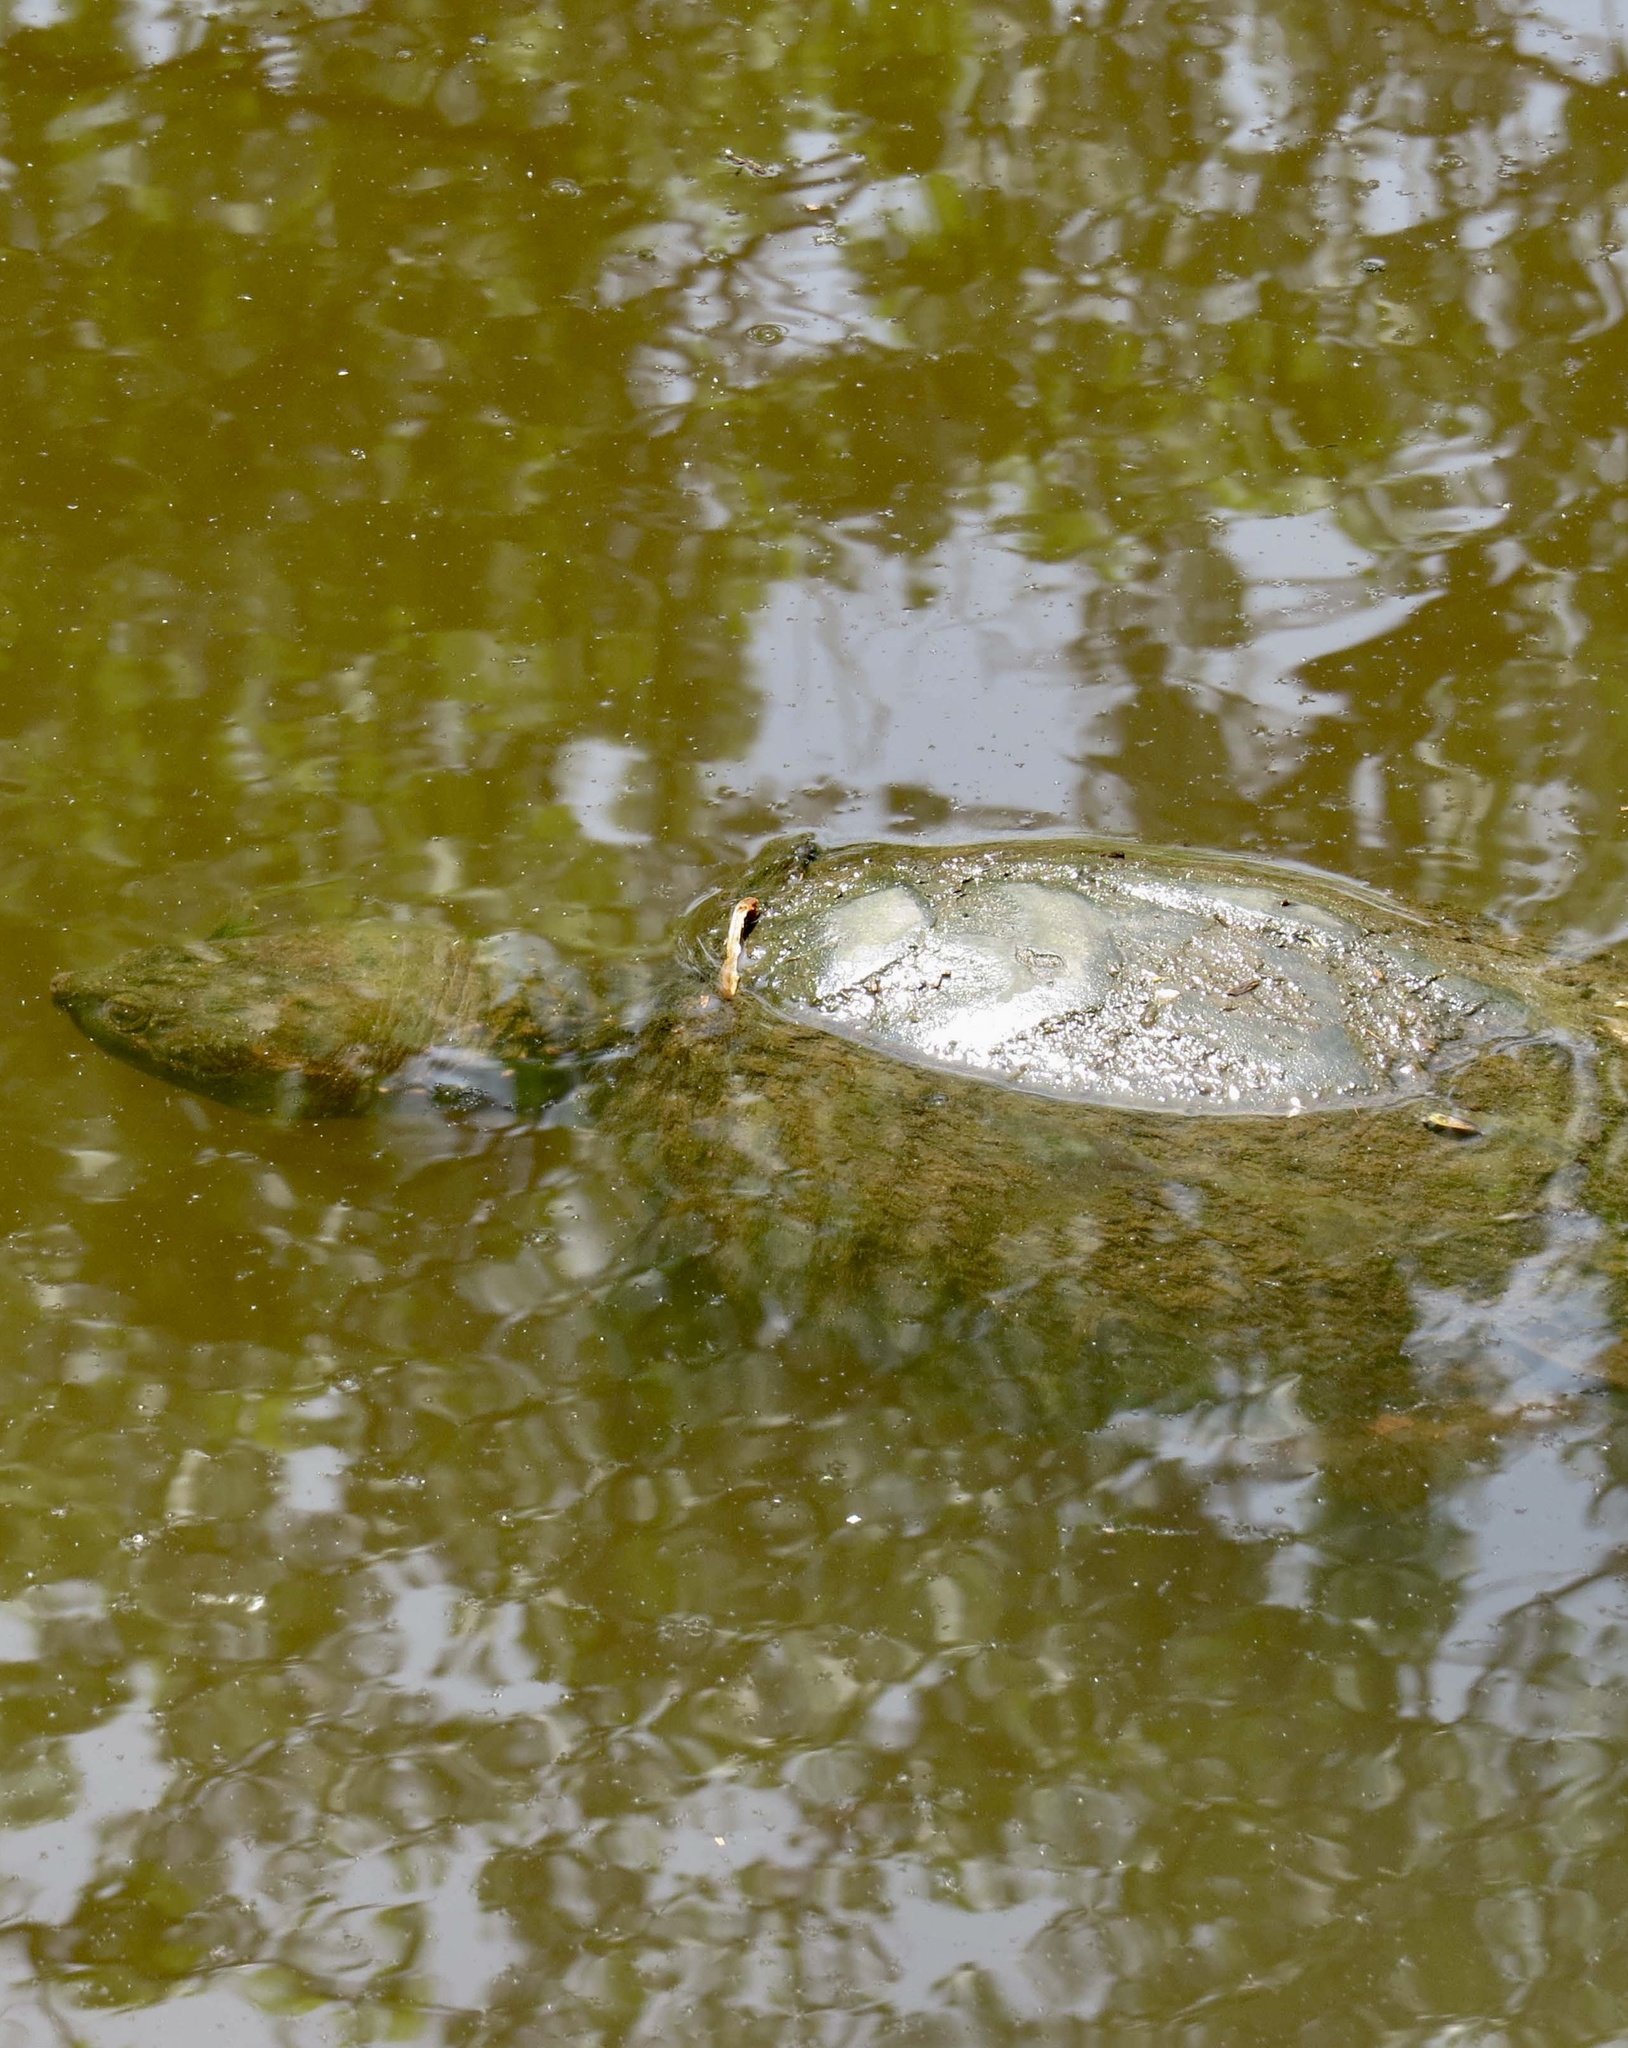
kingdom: Animalia
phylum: Chordata
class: Testudines
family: Chelydridae
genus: Chelydra
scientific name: Chelydra serpentina
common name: Common snapping turtle
